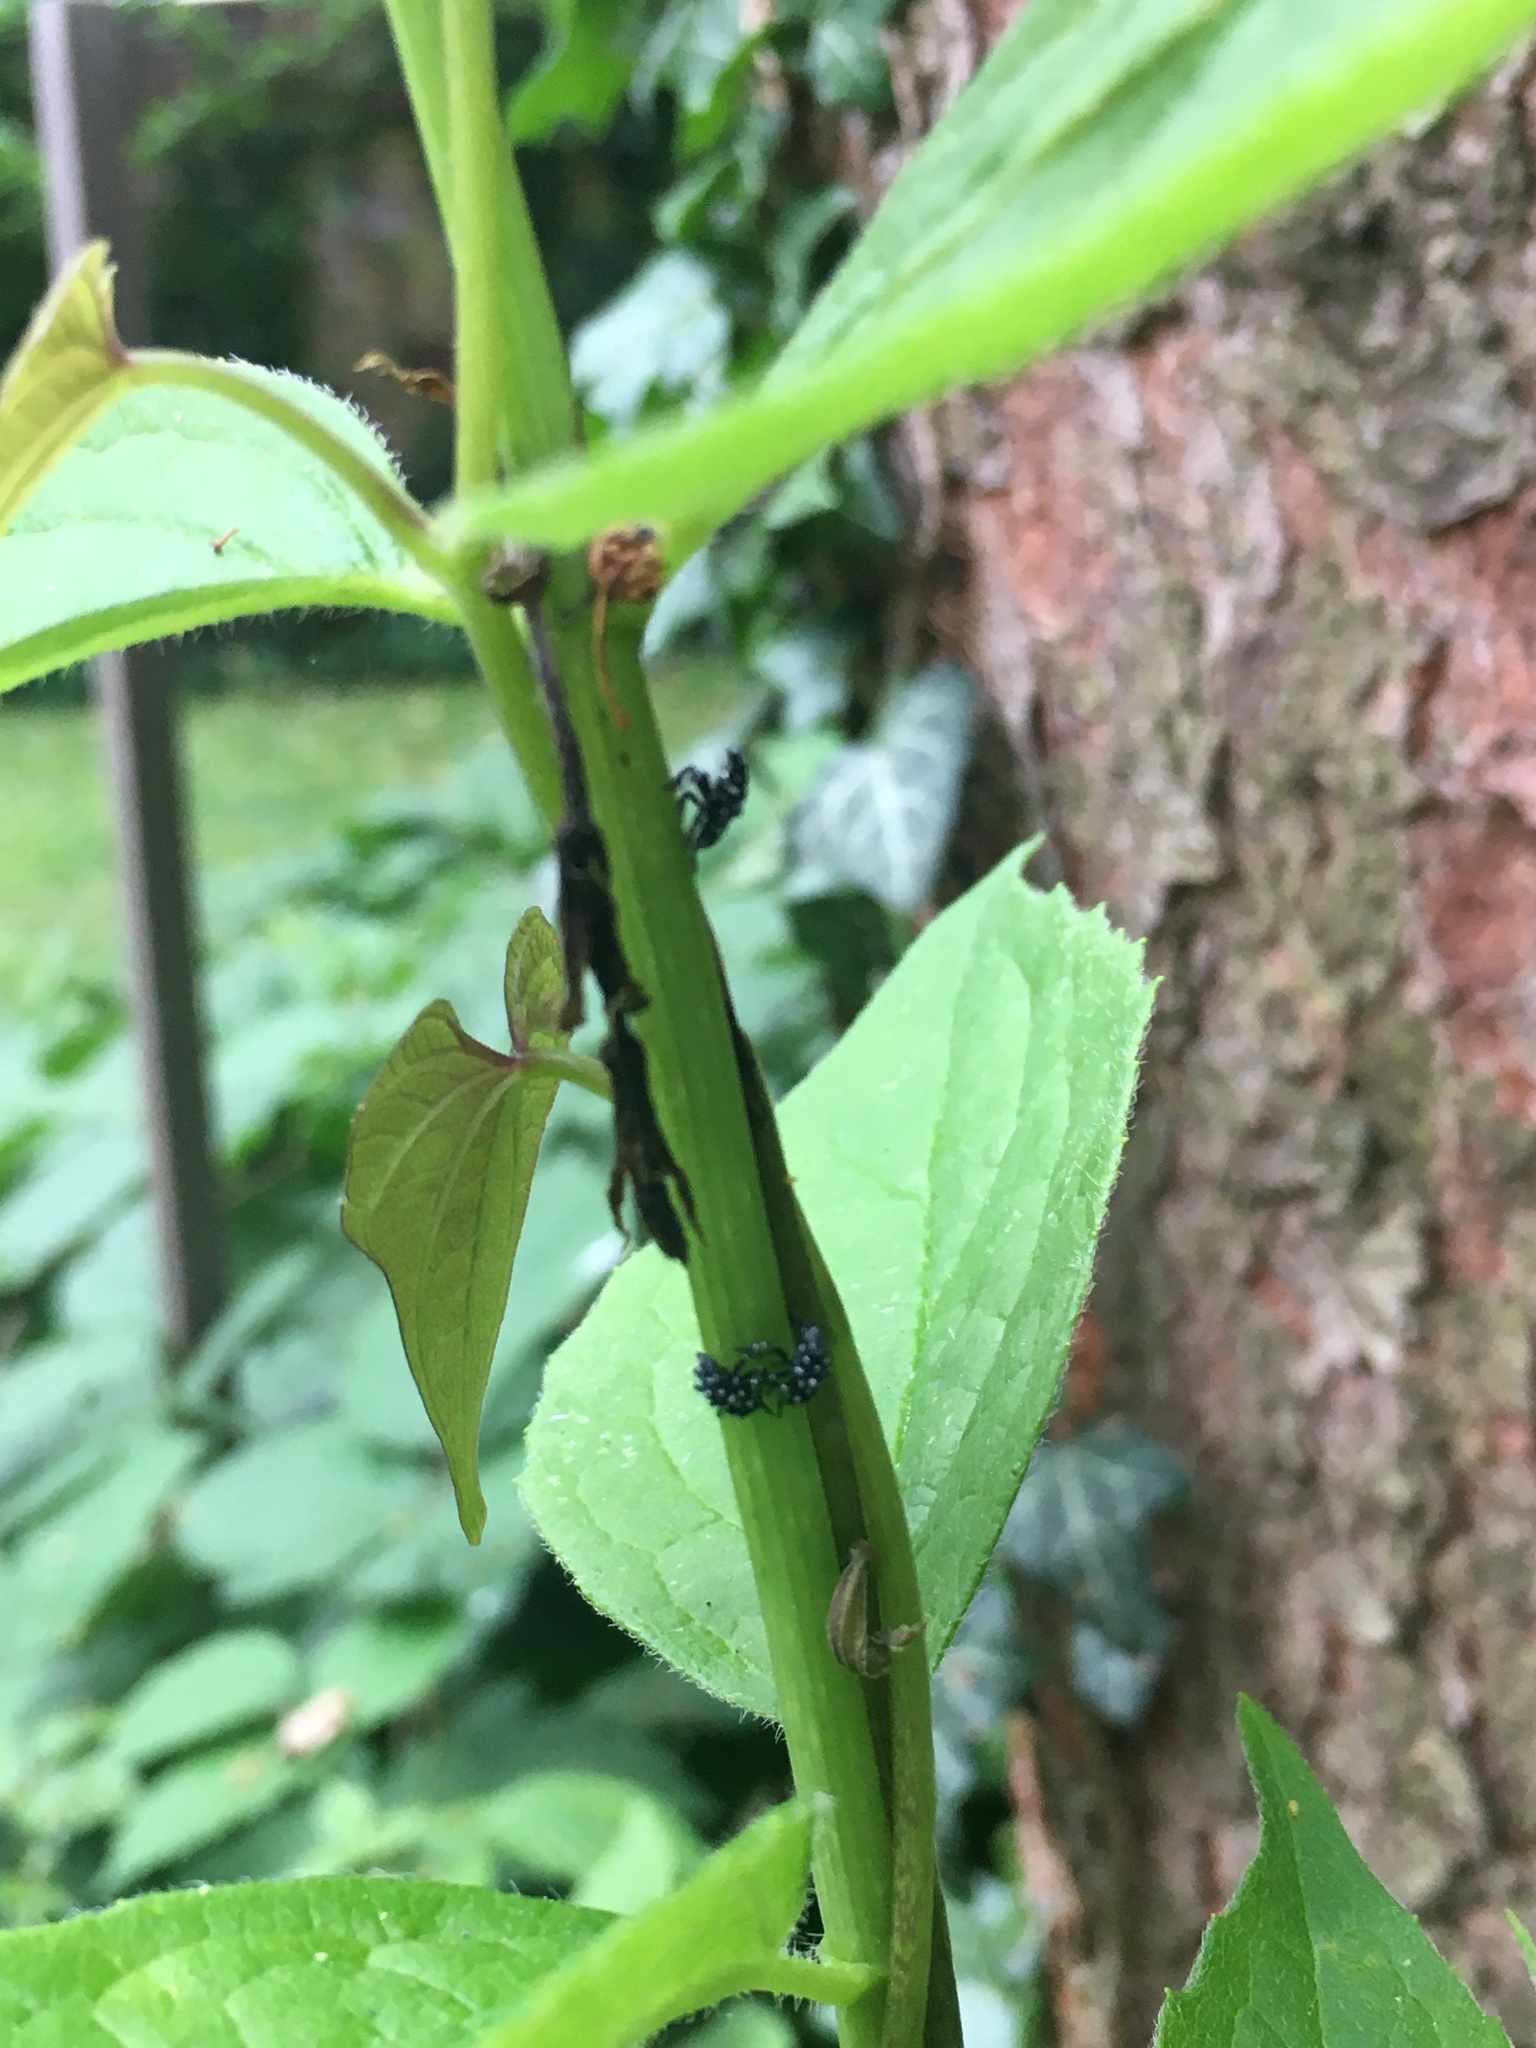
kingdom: Animalia
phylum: Arthropoda
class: Insecta
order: Hemiptera
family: Fulgoridae
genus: Lycorma
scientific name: Lycorma delicatula
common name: Spotted lanternfly
